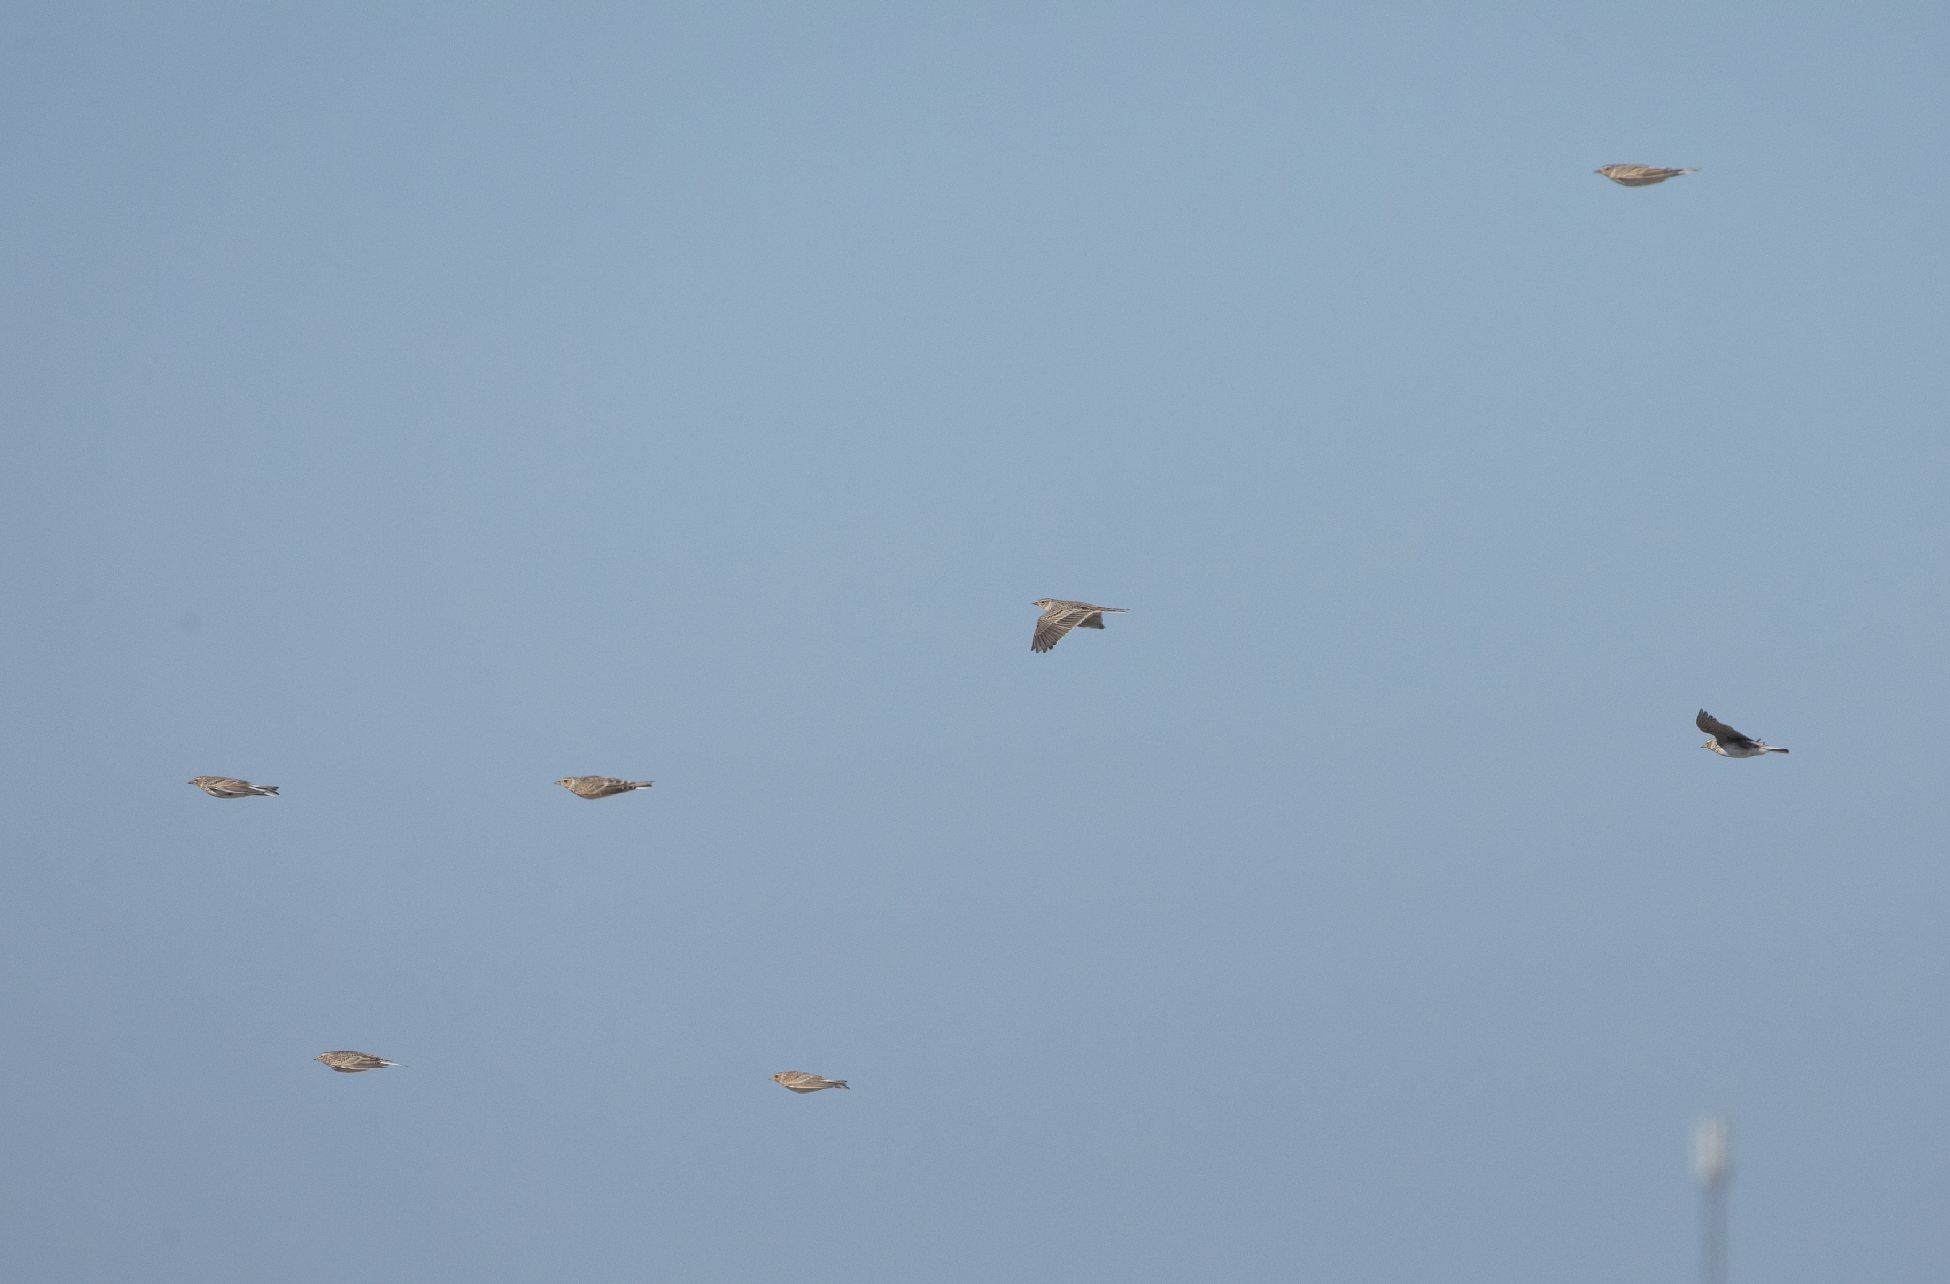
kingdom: Animalia
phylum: Chordata
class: Aves
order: Passeriformes
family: Alaudidae
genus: Alauda
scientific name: Alauda arvensis
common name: Eurasian skylark
